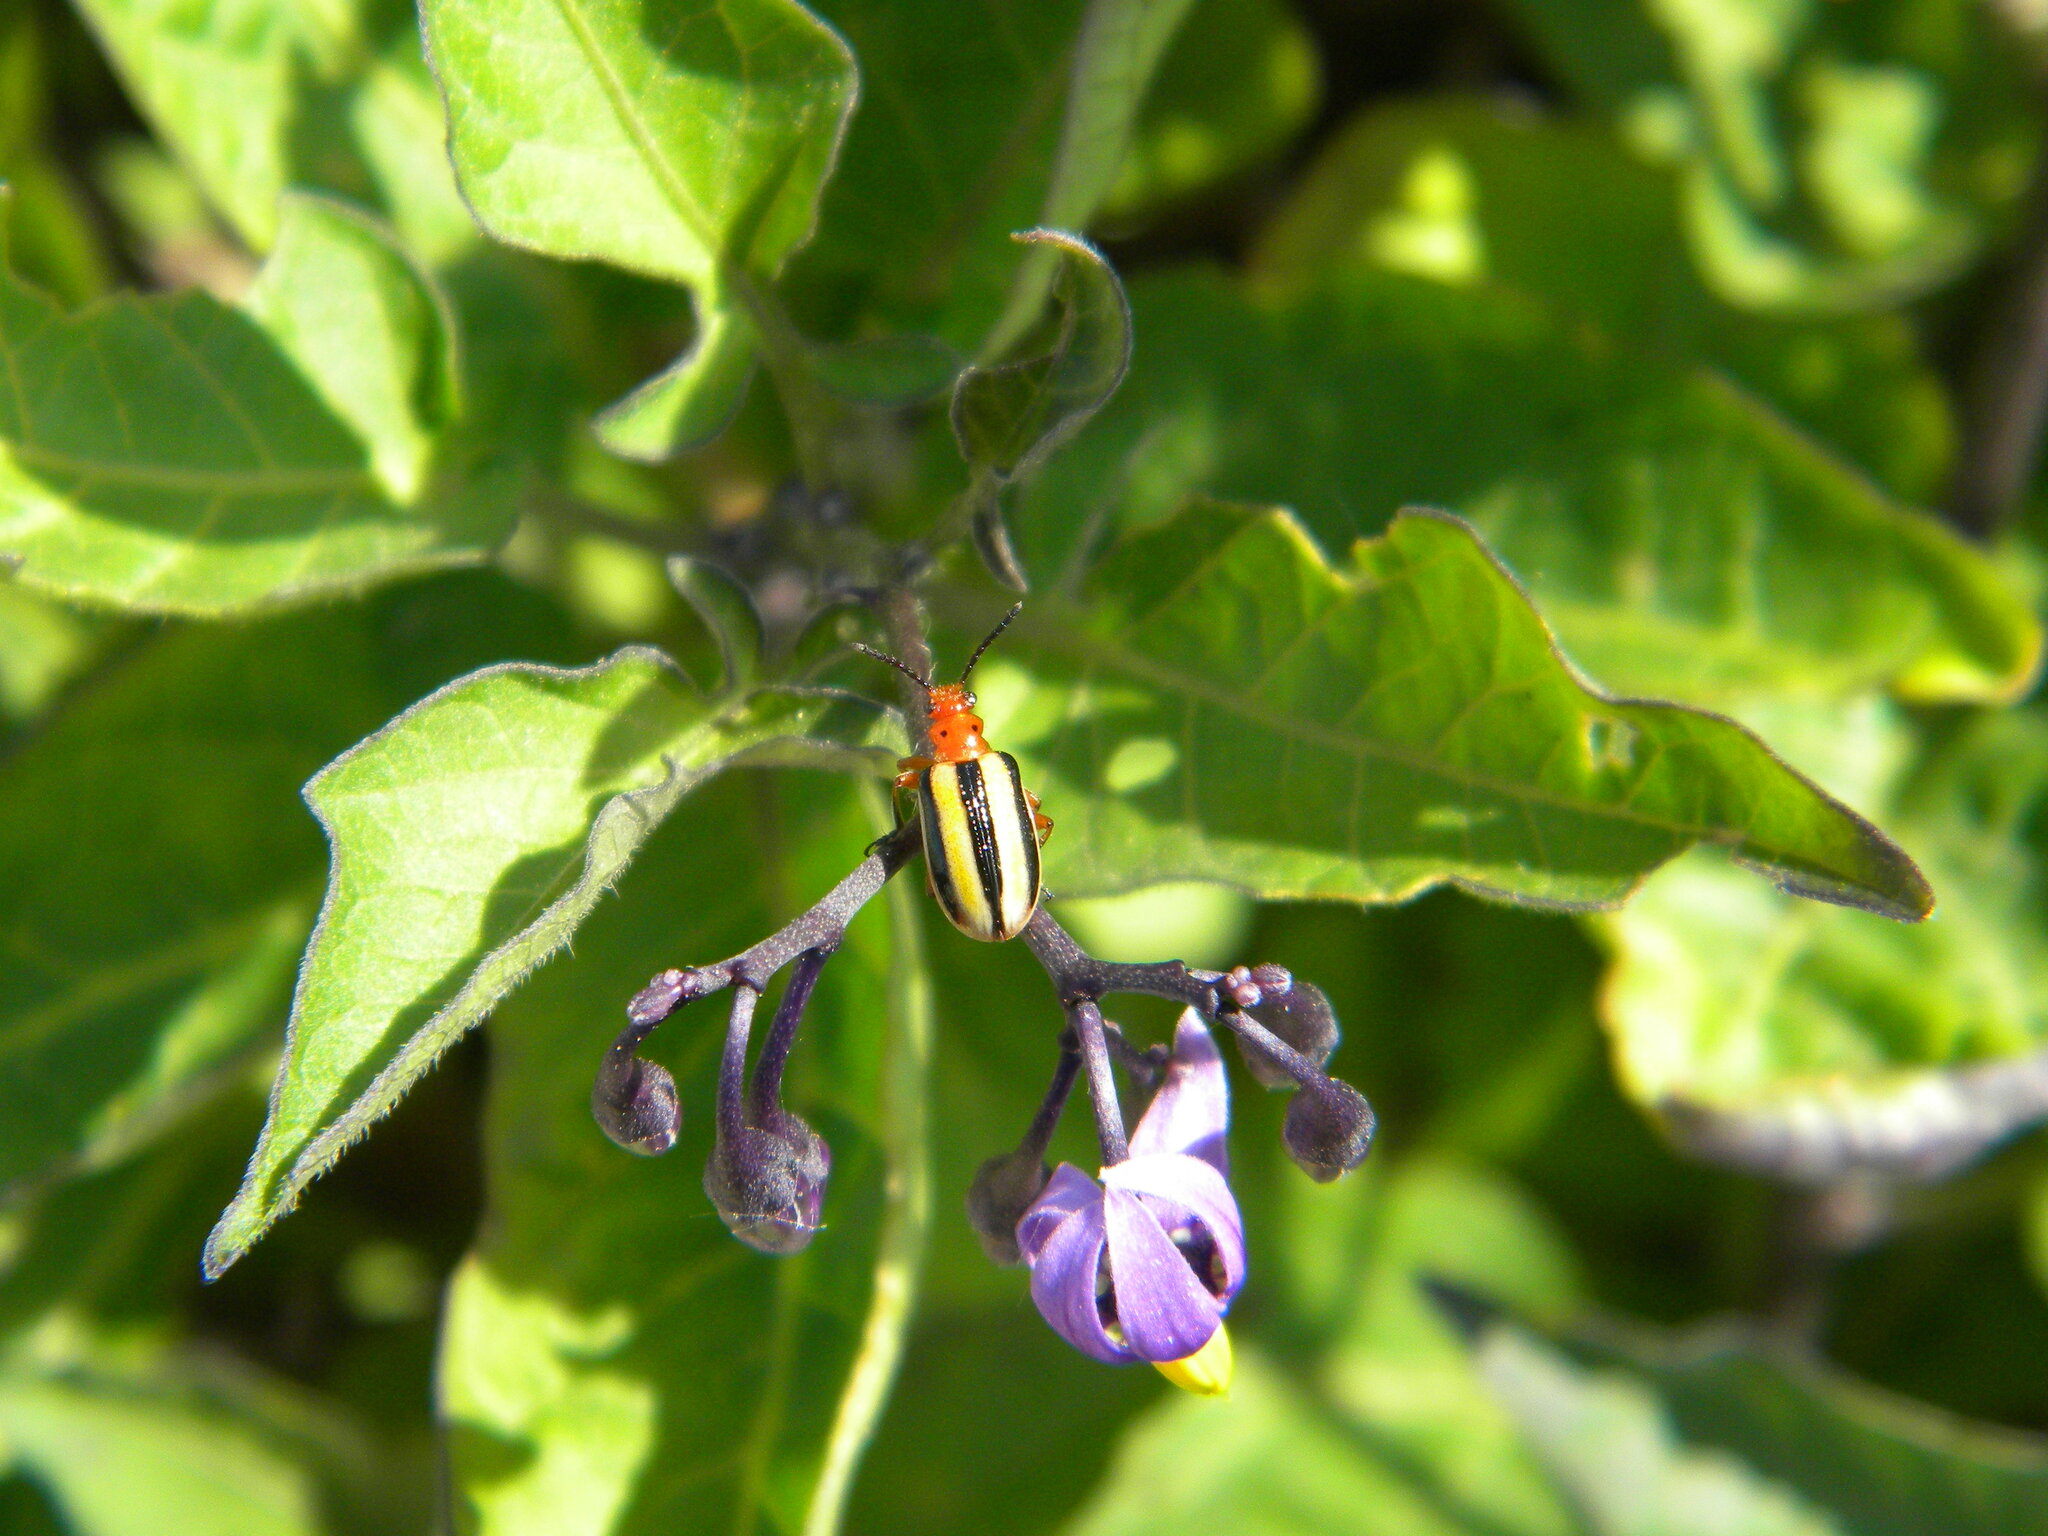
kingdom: Plantae
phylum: Tracheophyta
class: Magnoliopsida
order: Solanales
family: Solanaceae
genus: Solanum
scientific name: Solanum dulcamara
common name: Climbing nightshade
